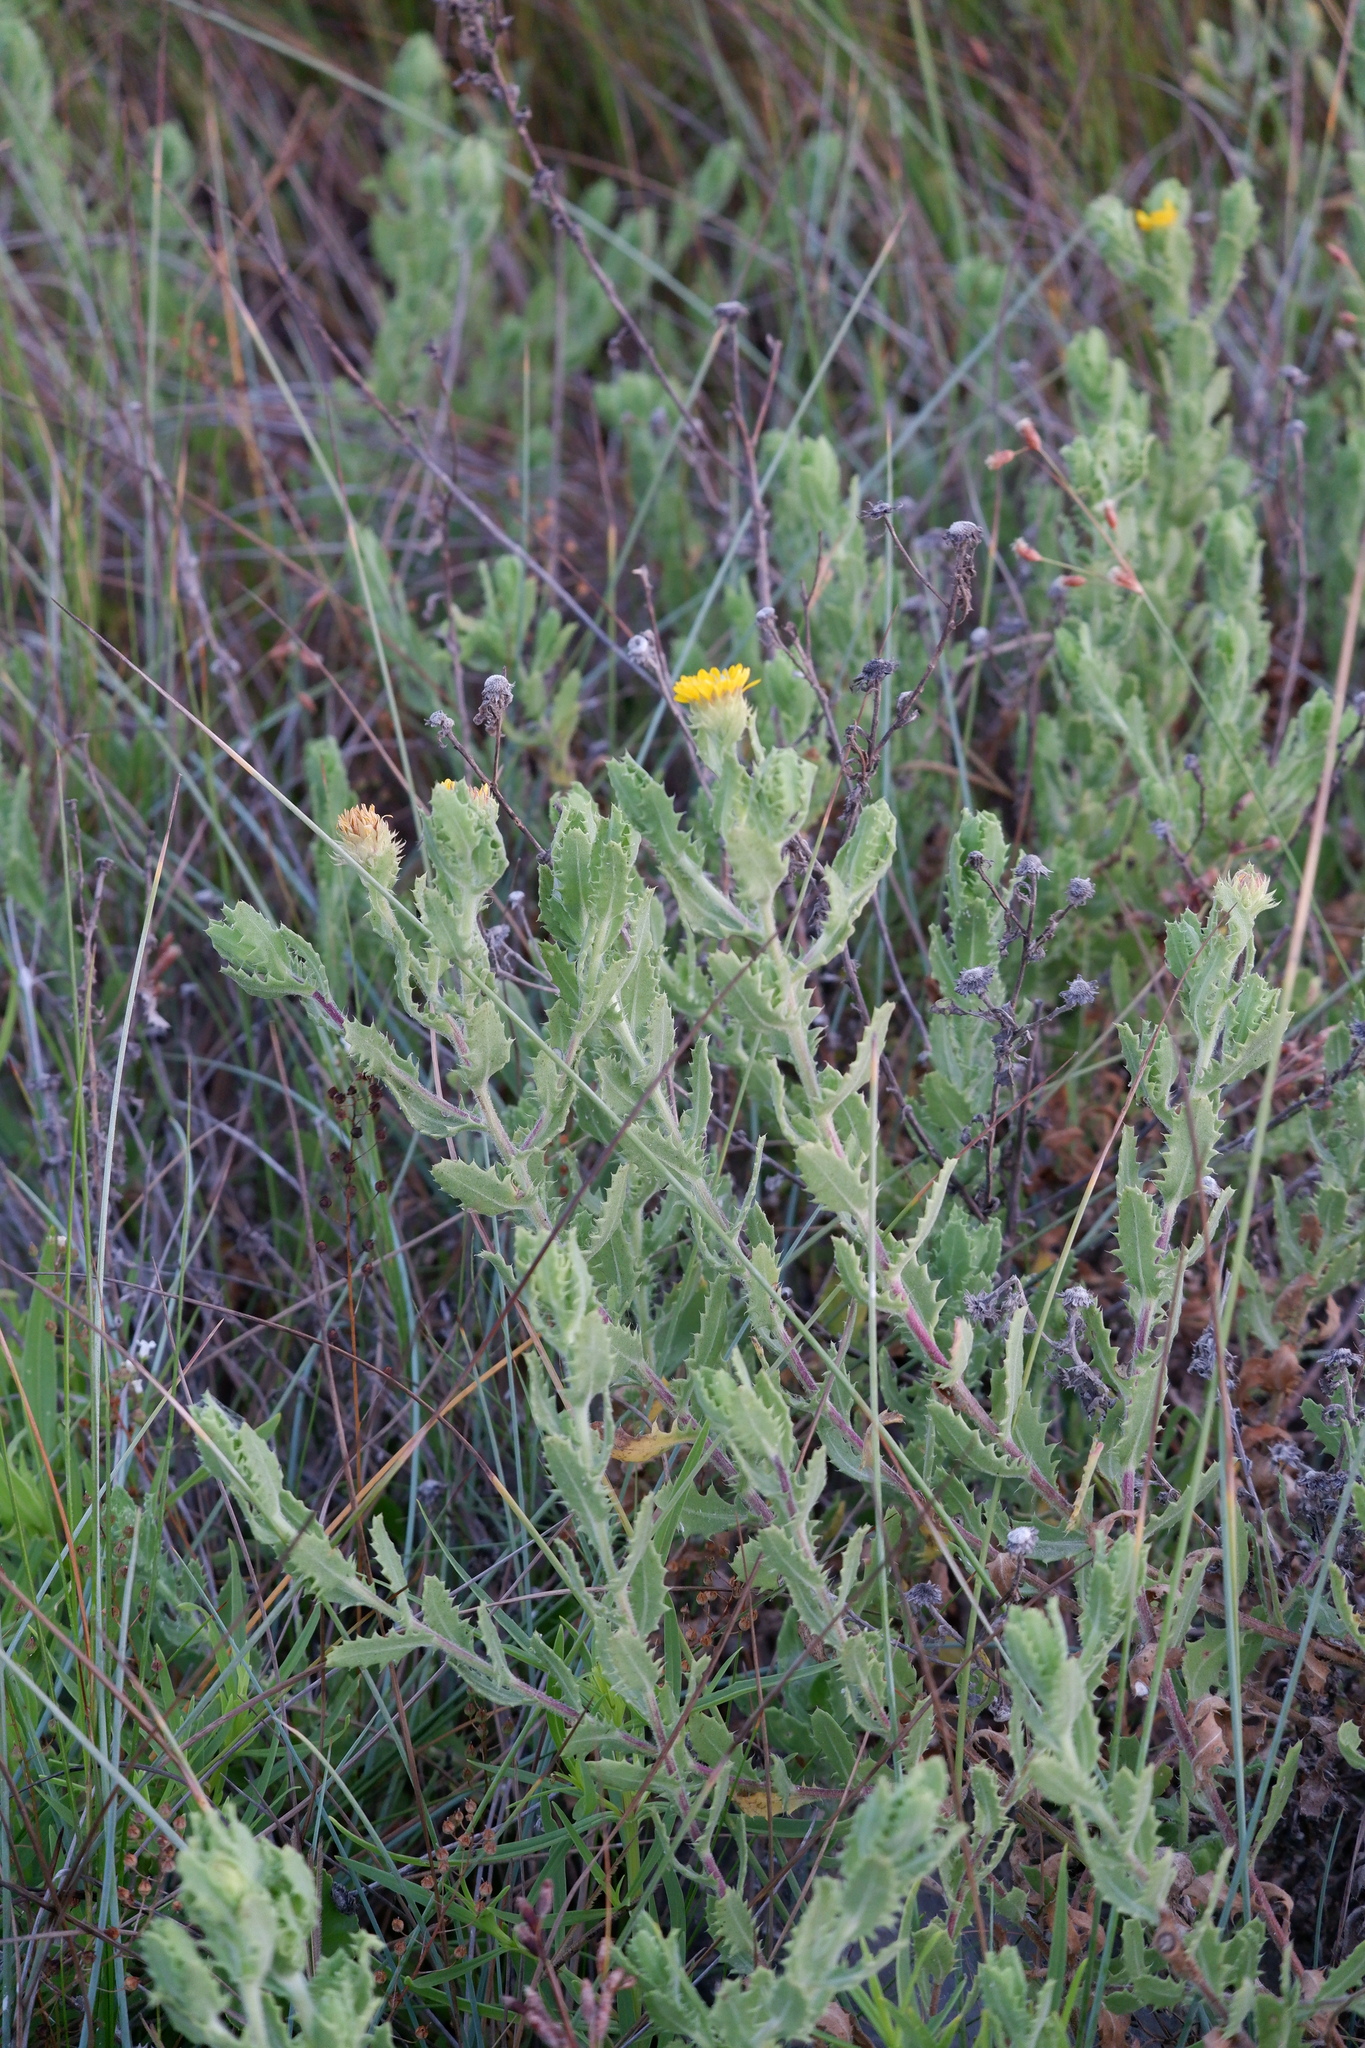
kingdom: Plantae
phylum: Tracheophyta
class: Magnoliopsida
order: Asterales
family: Asteraceae
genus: Rayjacksonia
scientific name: Rayjacksonia phyllocephala
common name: Gulf coast camphor daisy
